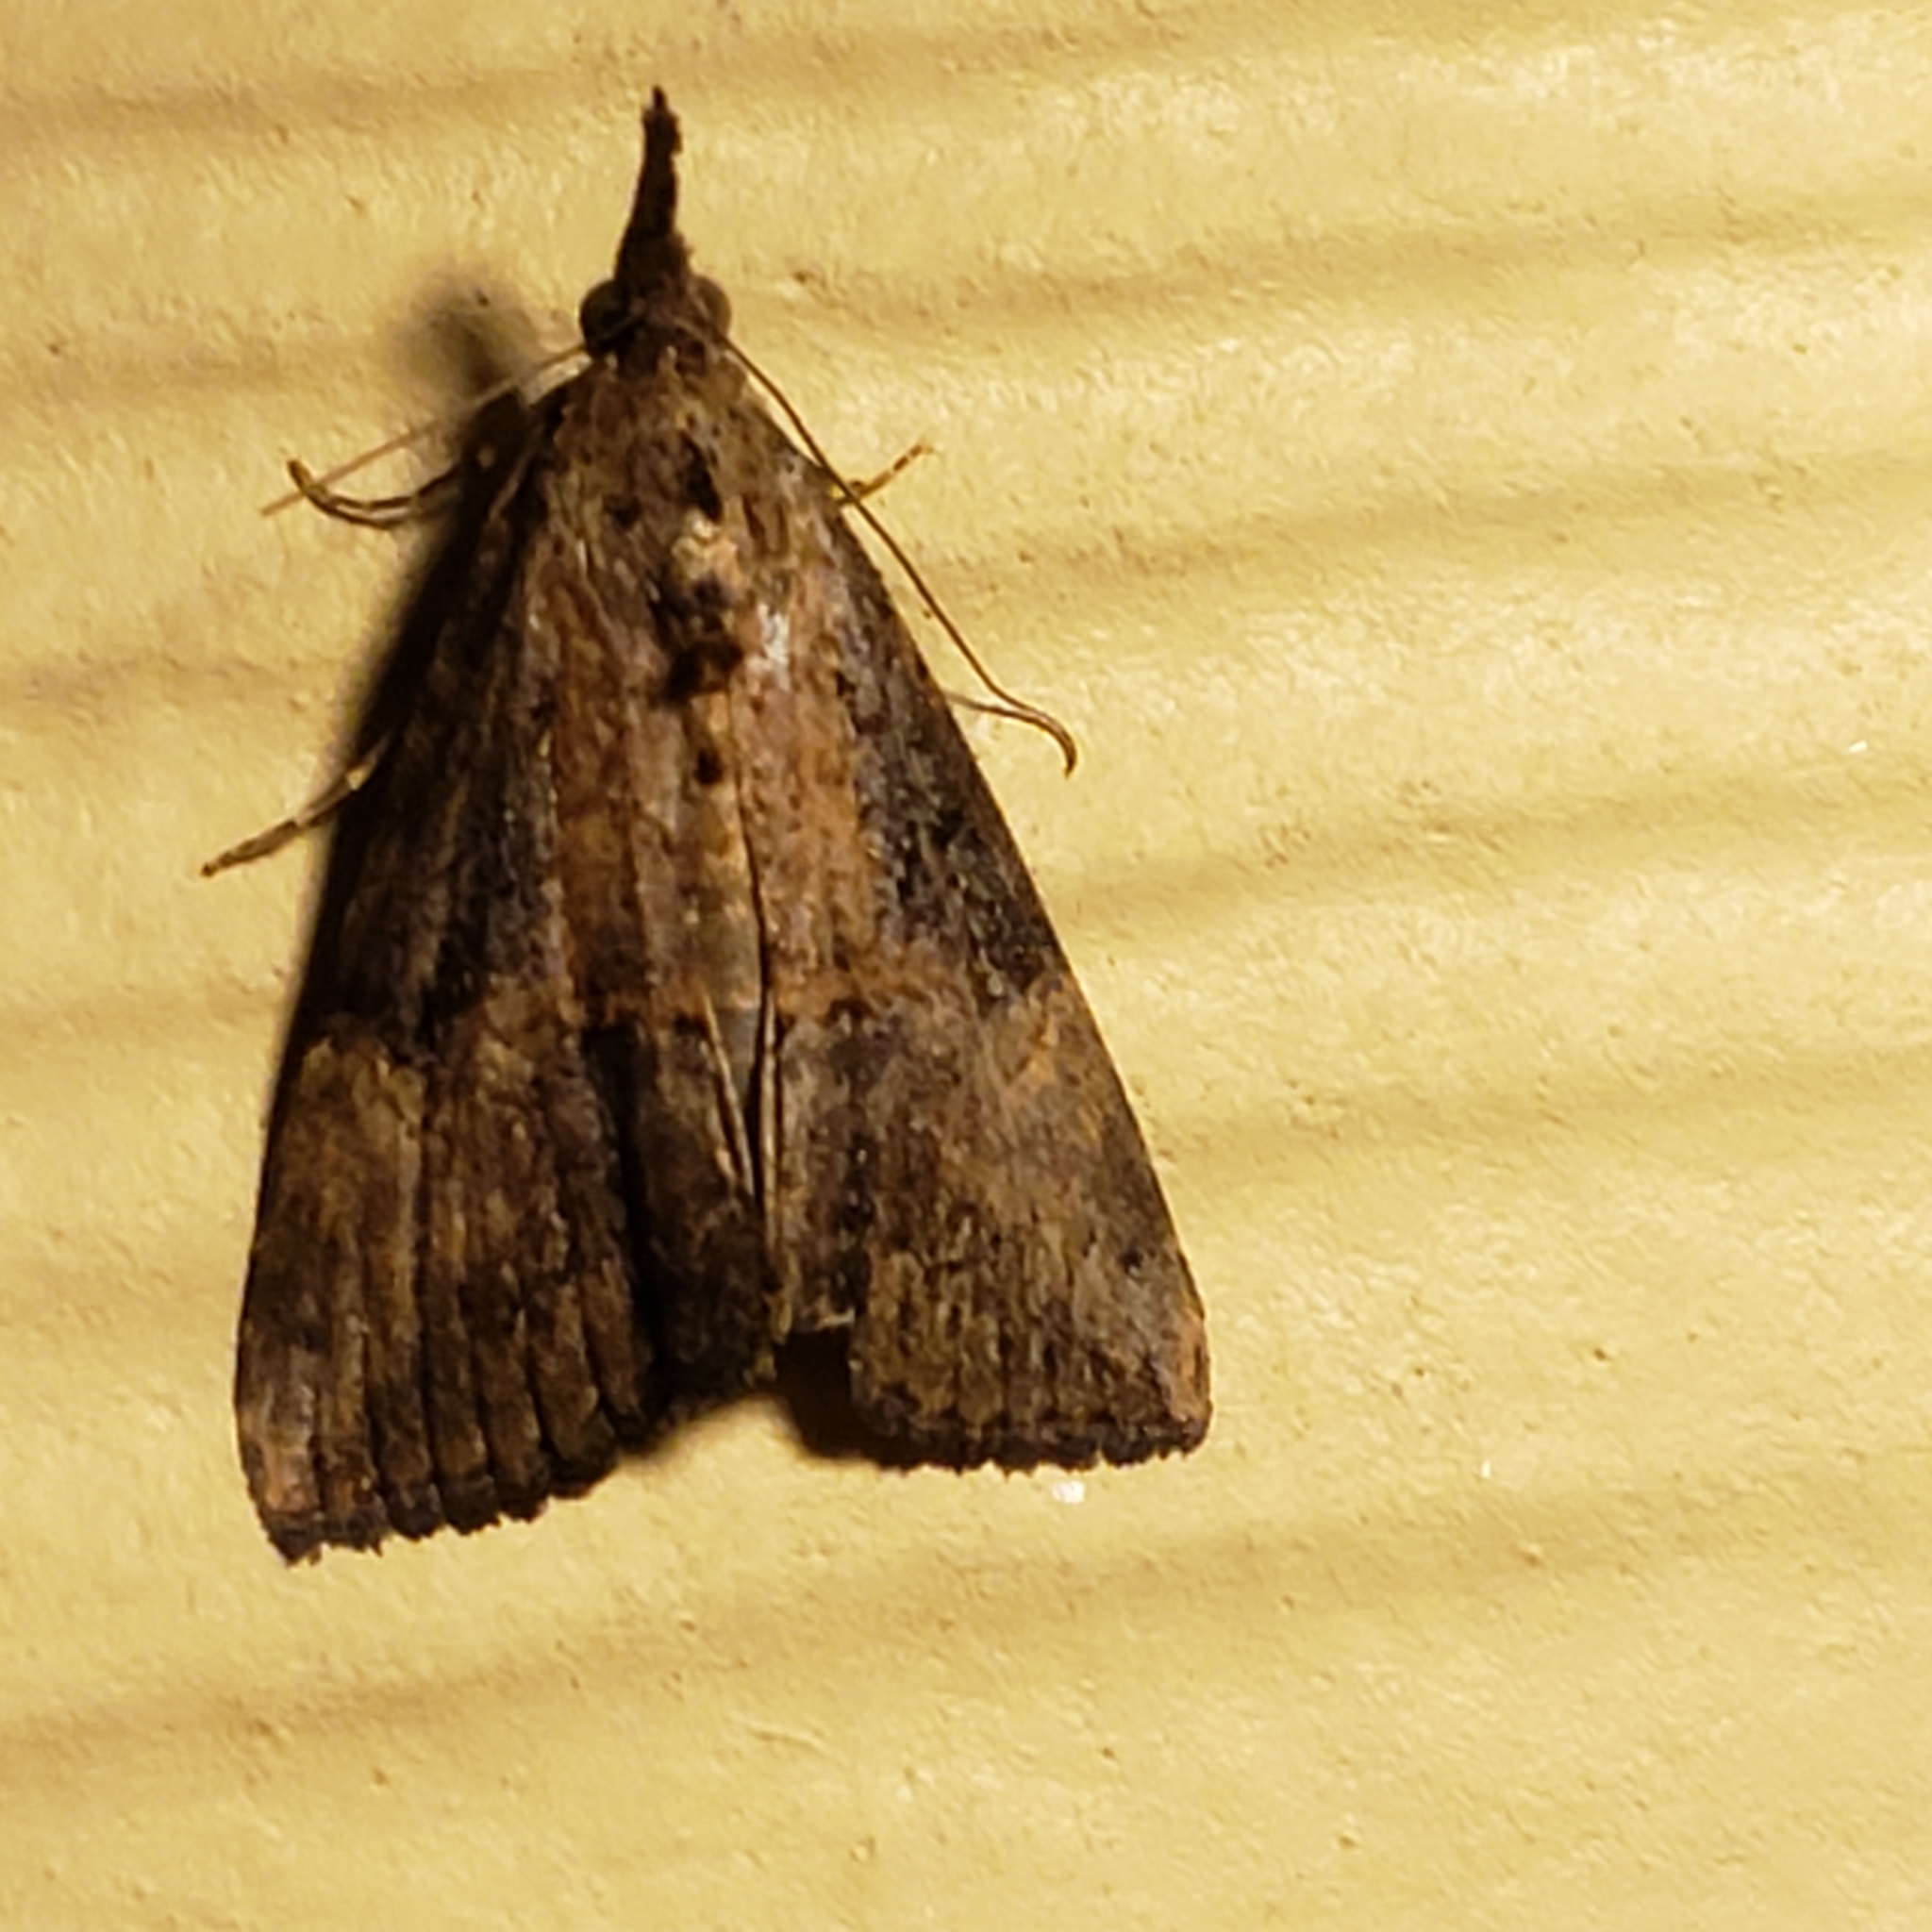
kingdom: Animalia
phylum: Arthropoda
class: Insecta
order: Lepidoptera
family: Erebidae
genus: Hypena
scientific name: Hypena scabra
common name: Green cloverworm
